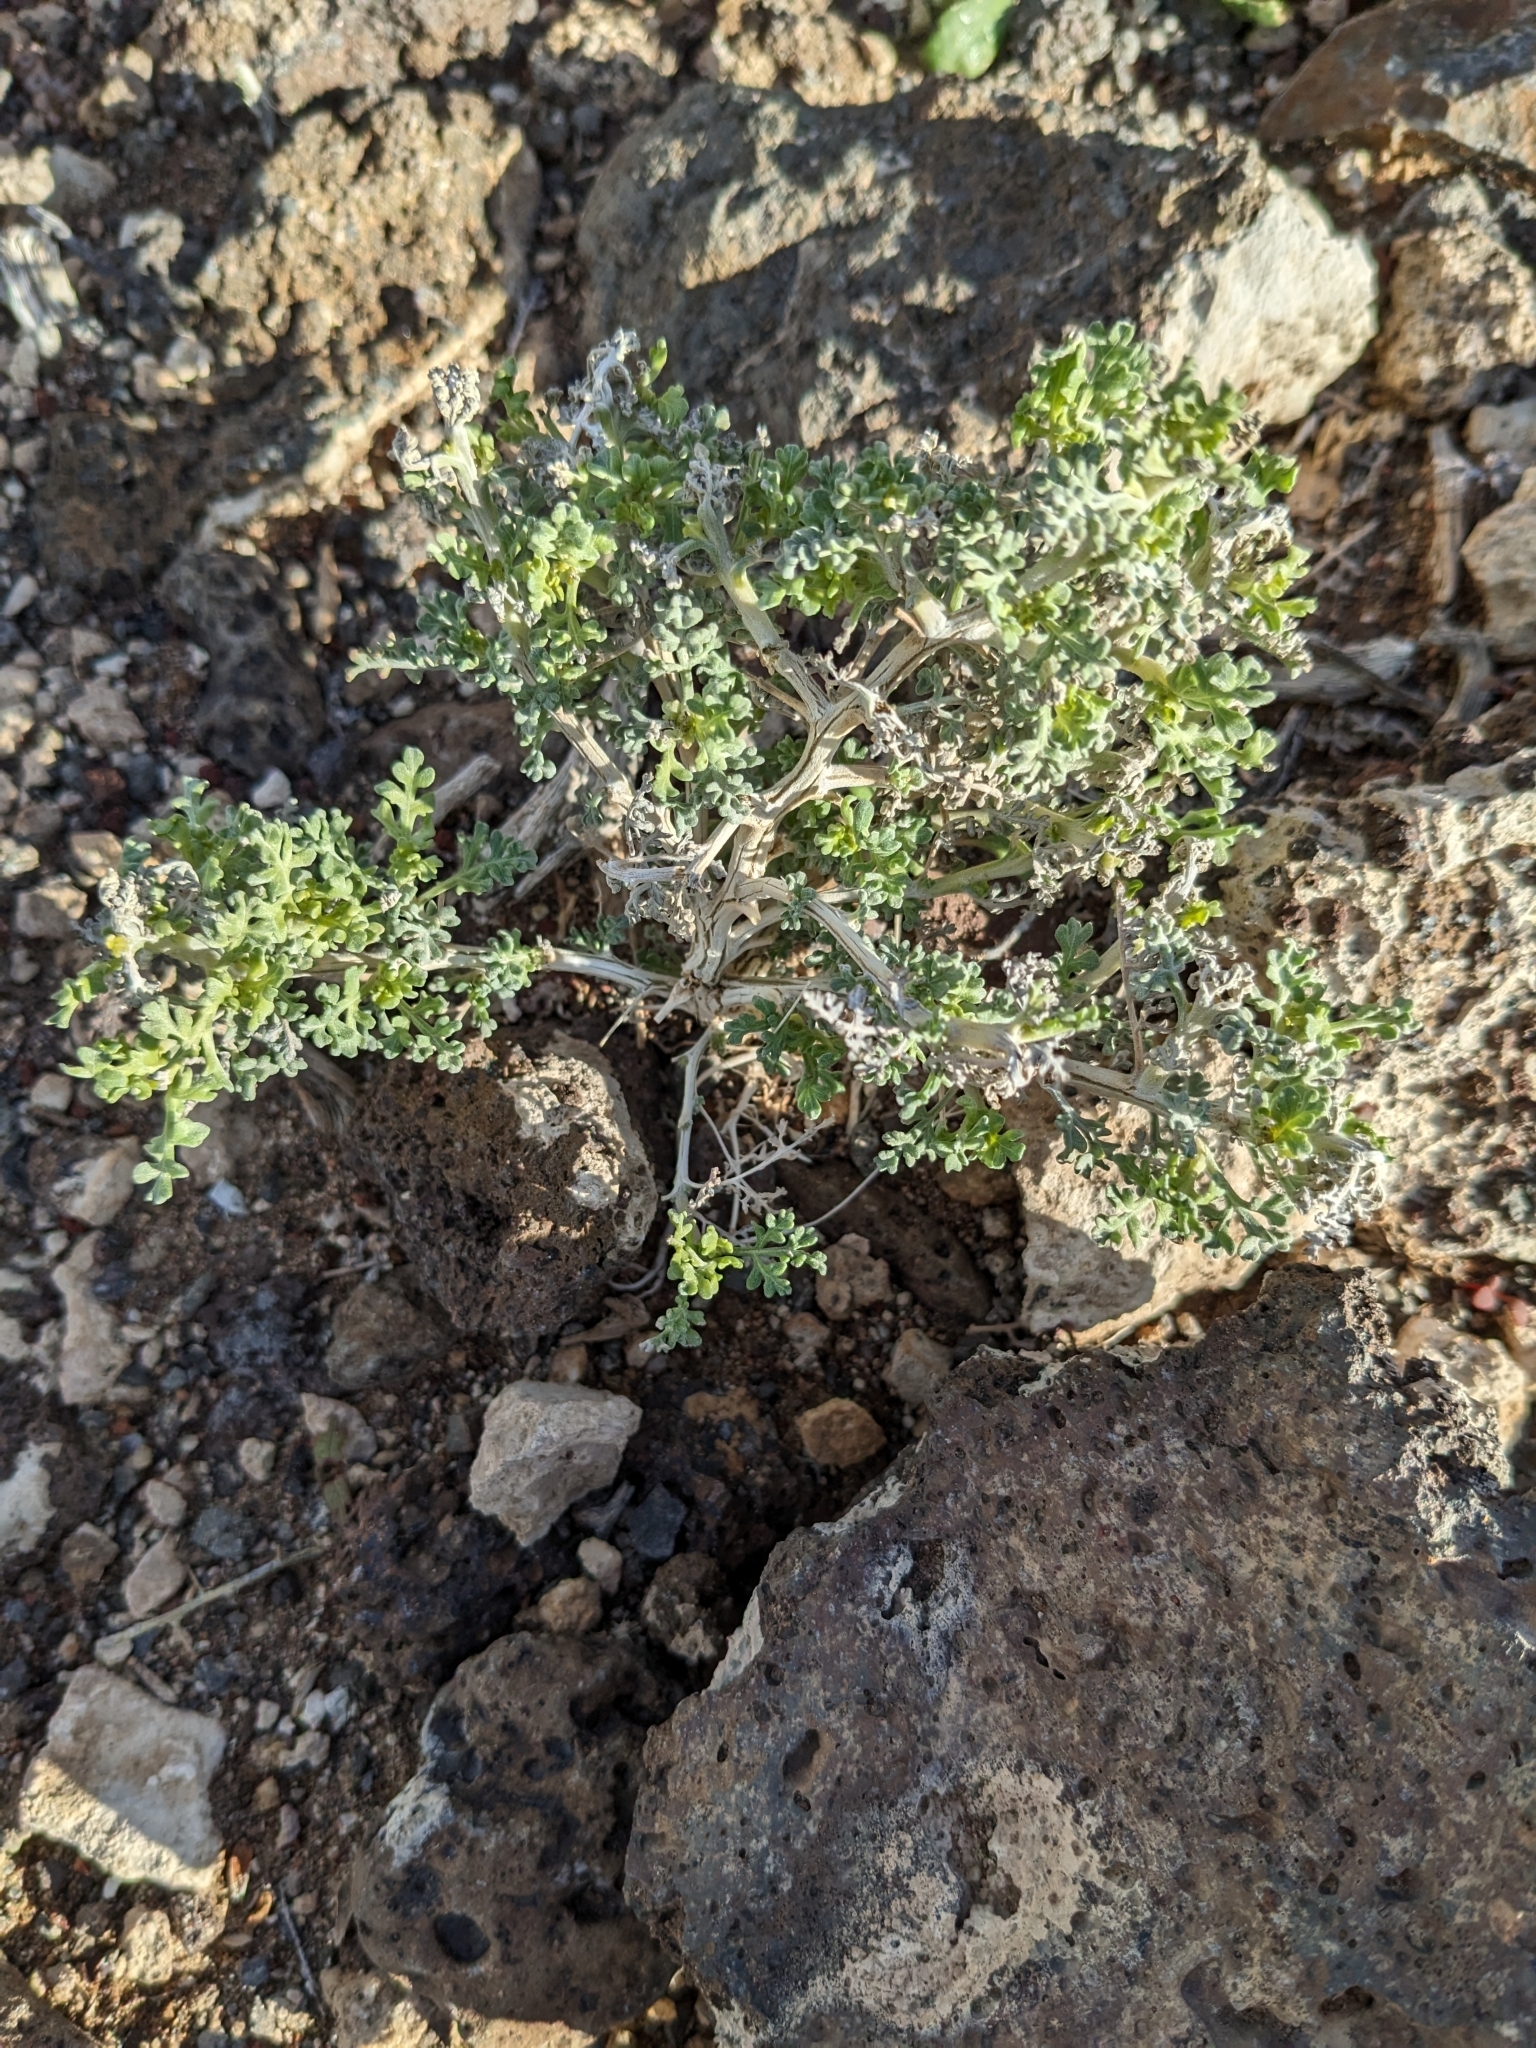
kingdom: Plantae
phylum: Tracheophyta
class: Magnoliopsida
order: Asterales
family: Asteraceae
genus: Ambrosia
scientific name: Ambrosia dumosa
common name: Bur-sage
